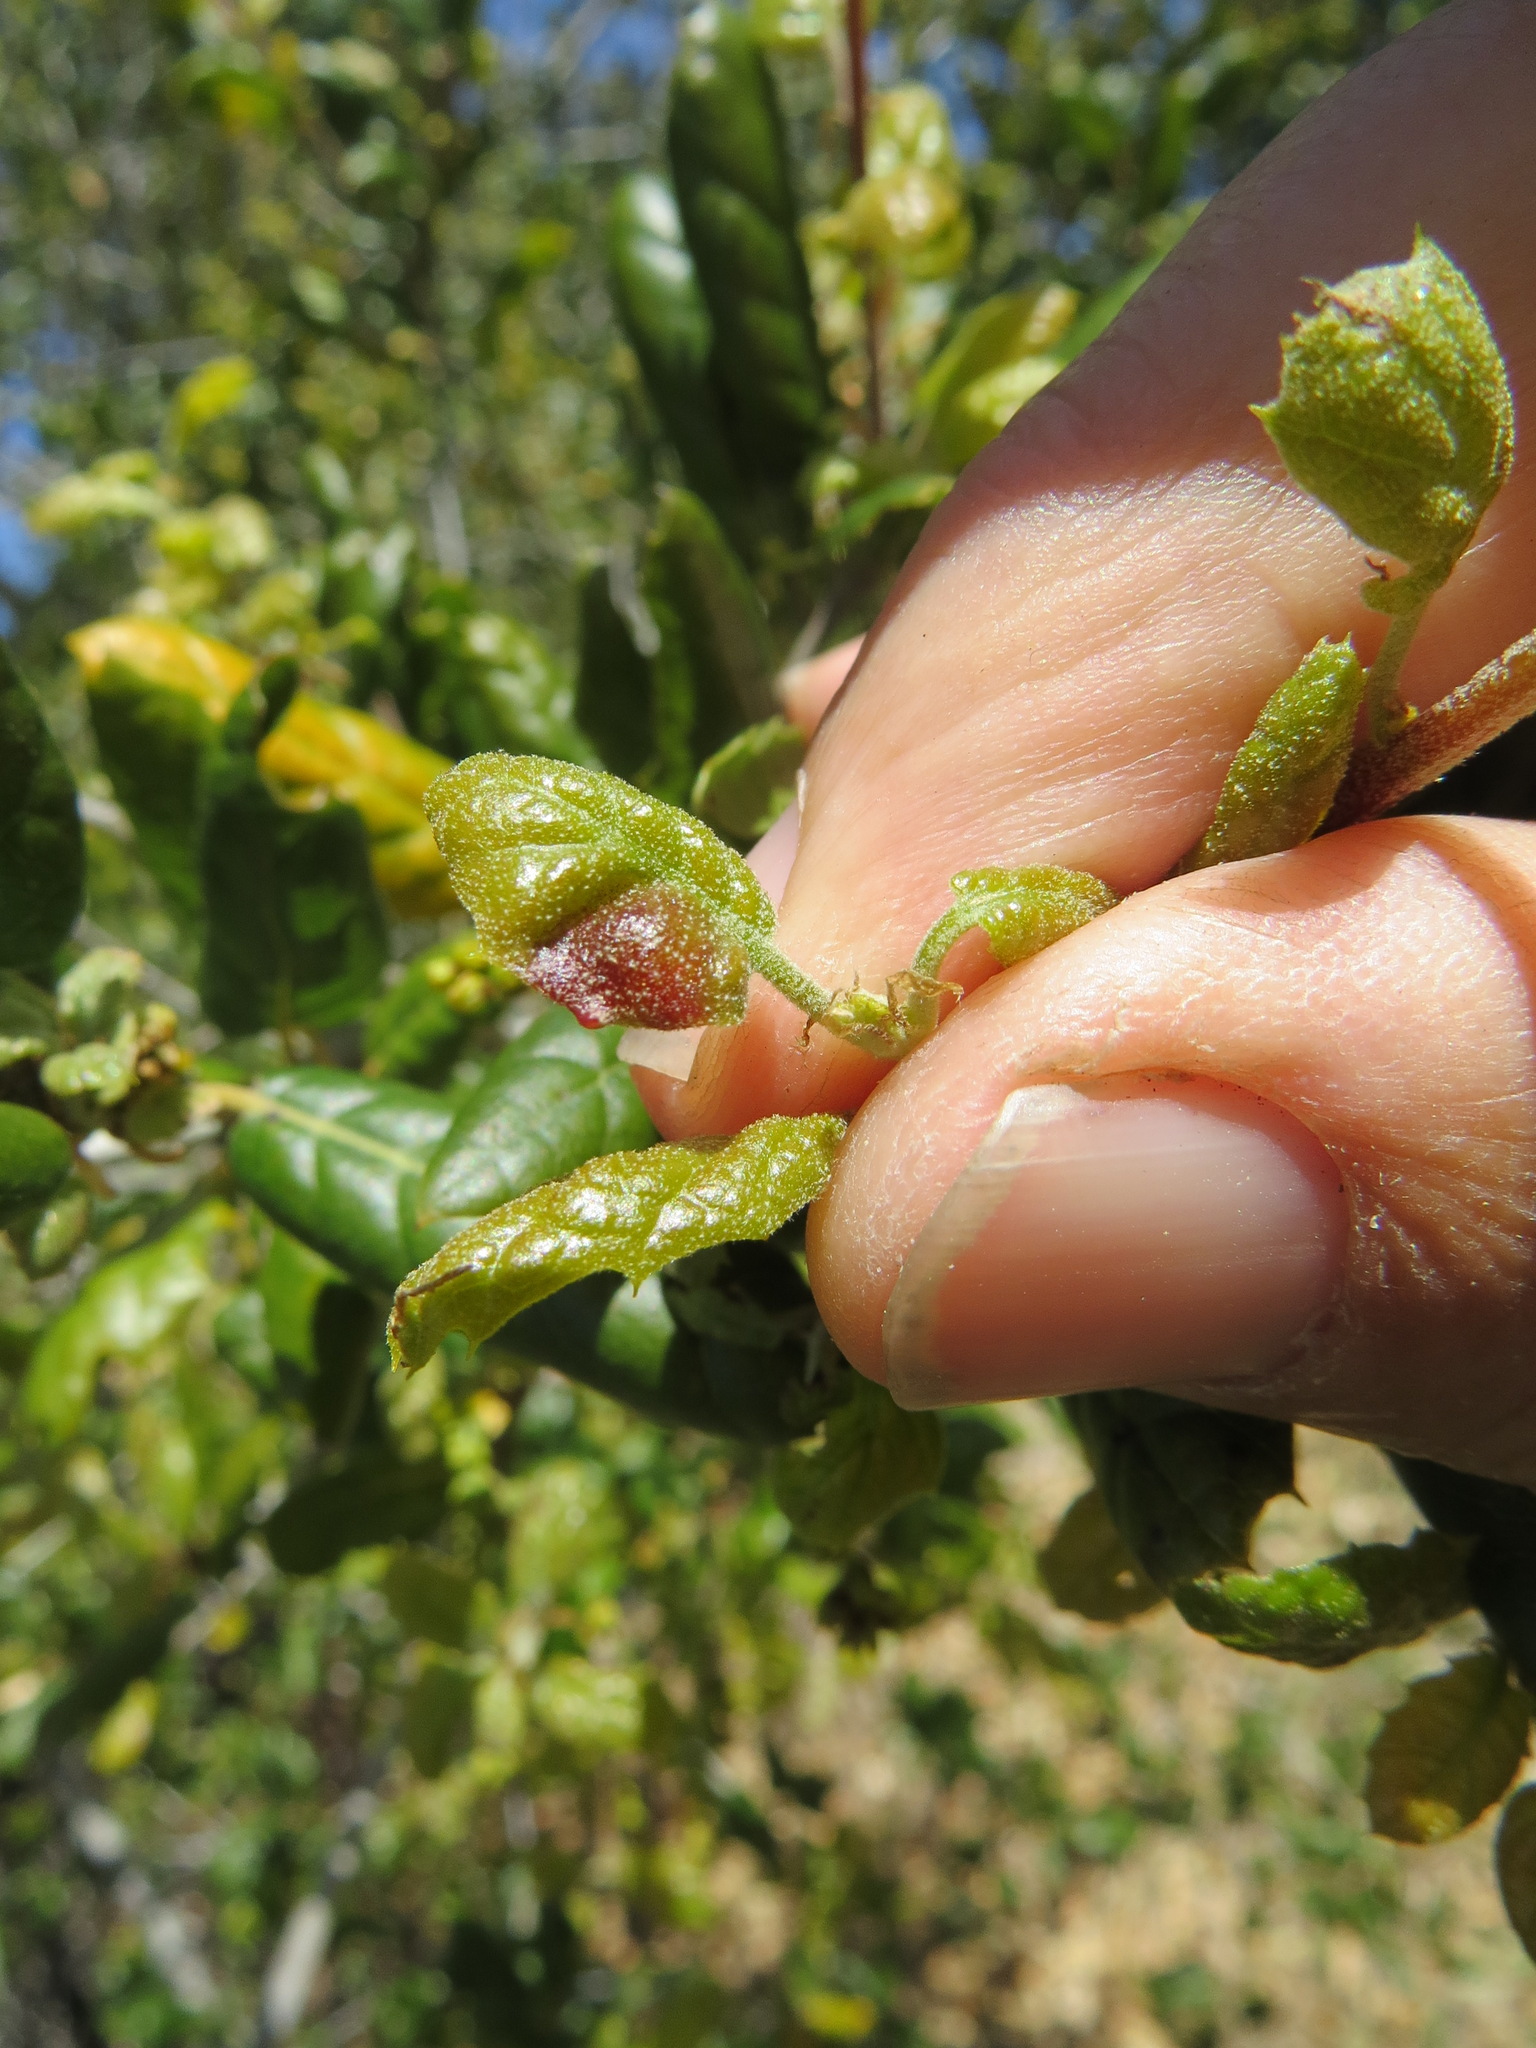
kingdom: Animalia
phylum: Arthropoda
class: Insecta
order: Hymenoptera
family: Cynipidae
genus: Callirhytis
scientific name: Callirhytis
